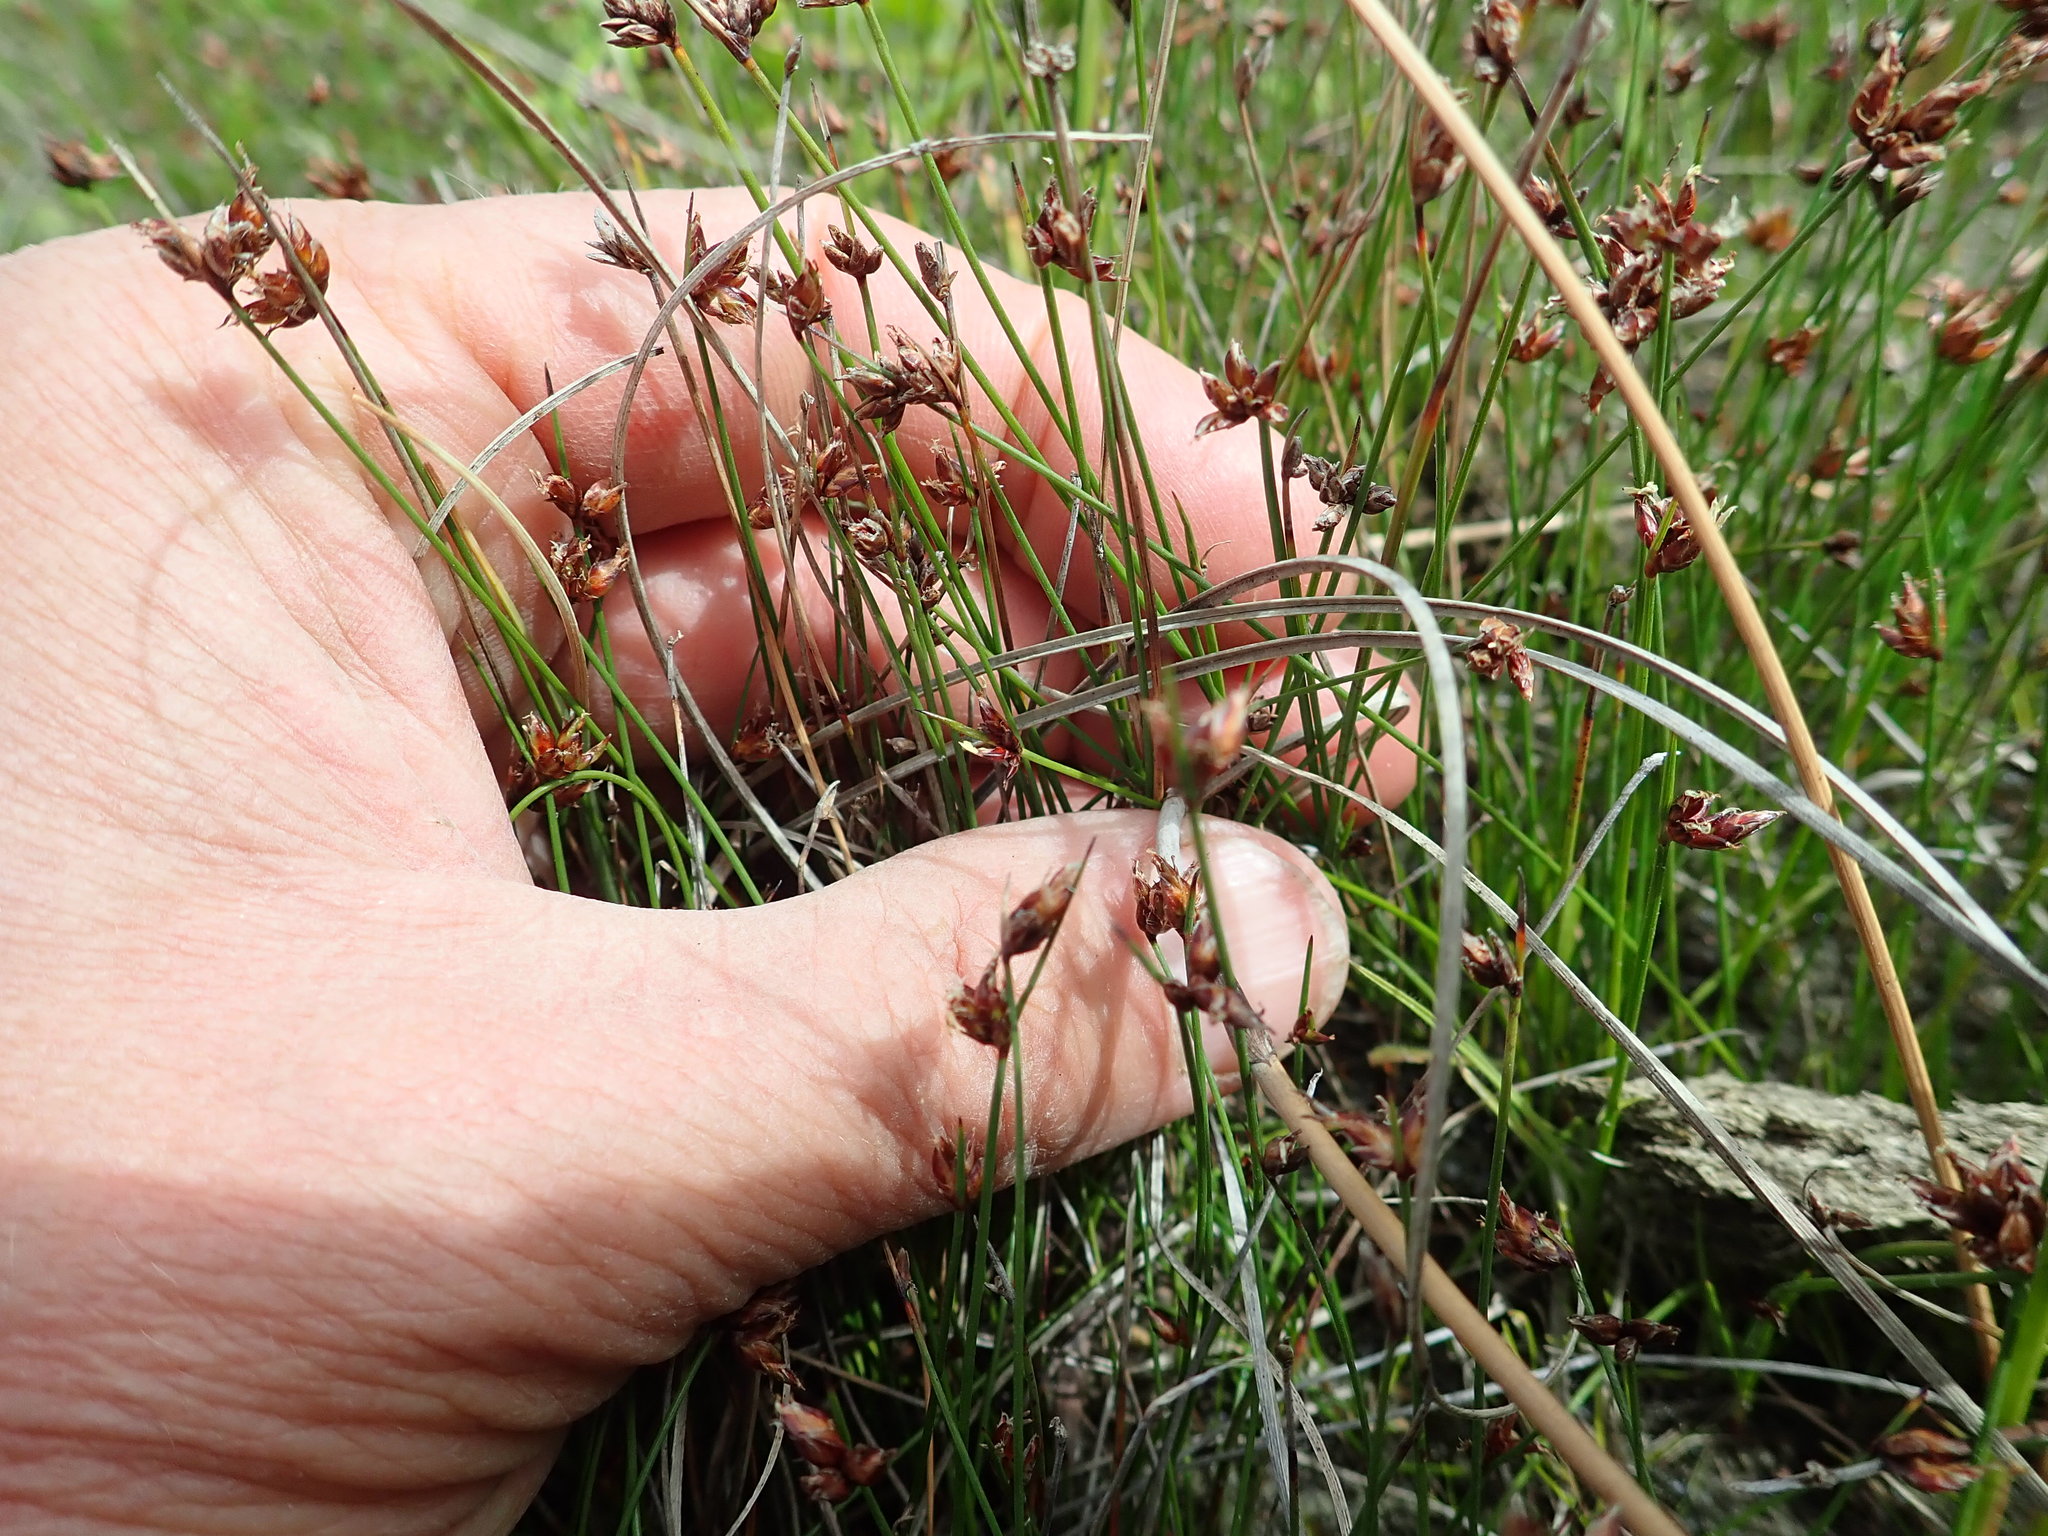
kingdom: Plantae
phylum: Tracheophyta
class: Liliopsida
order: Poales
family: Cyperaceae
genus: Schoenus
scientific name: Schoenus nitens
